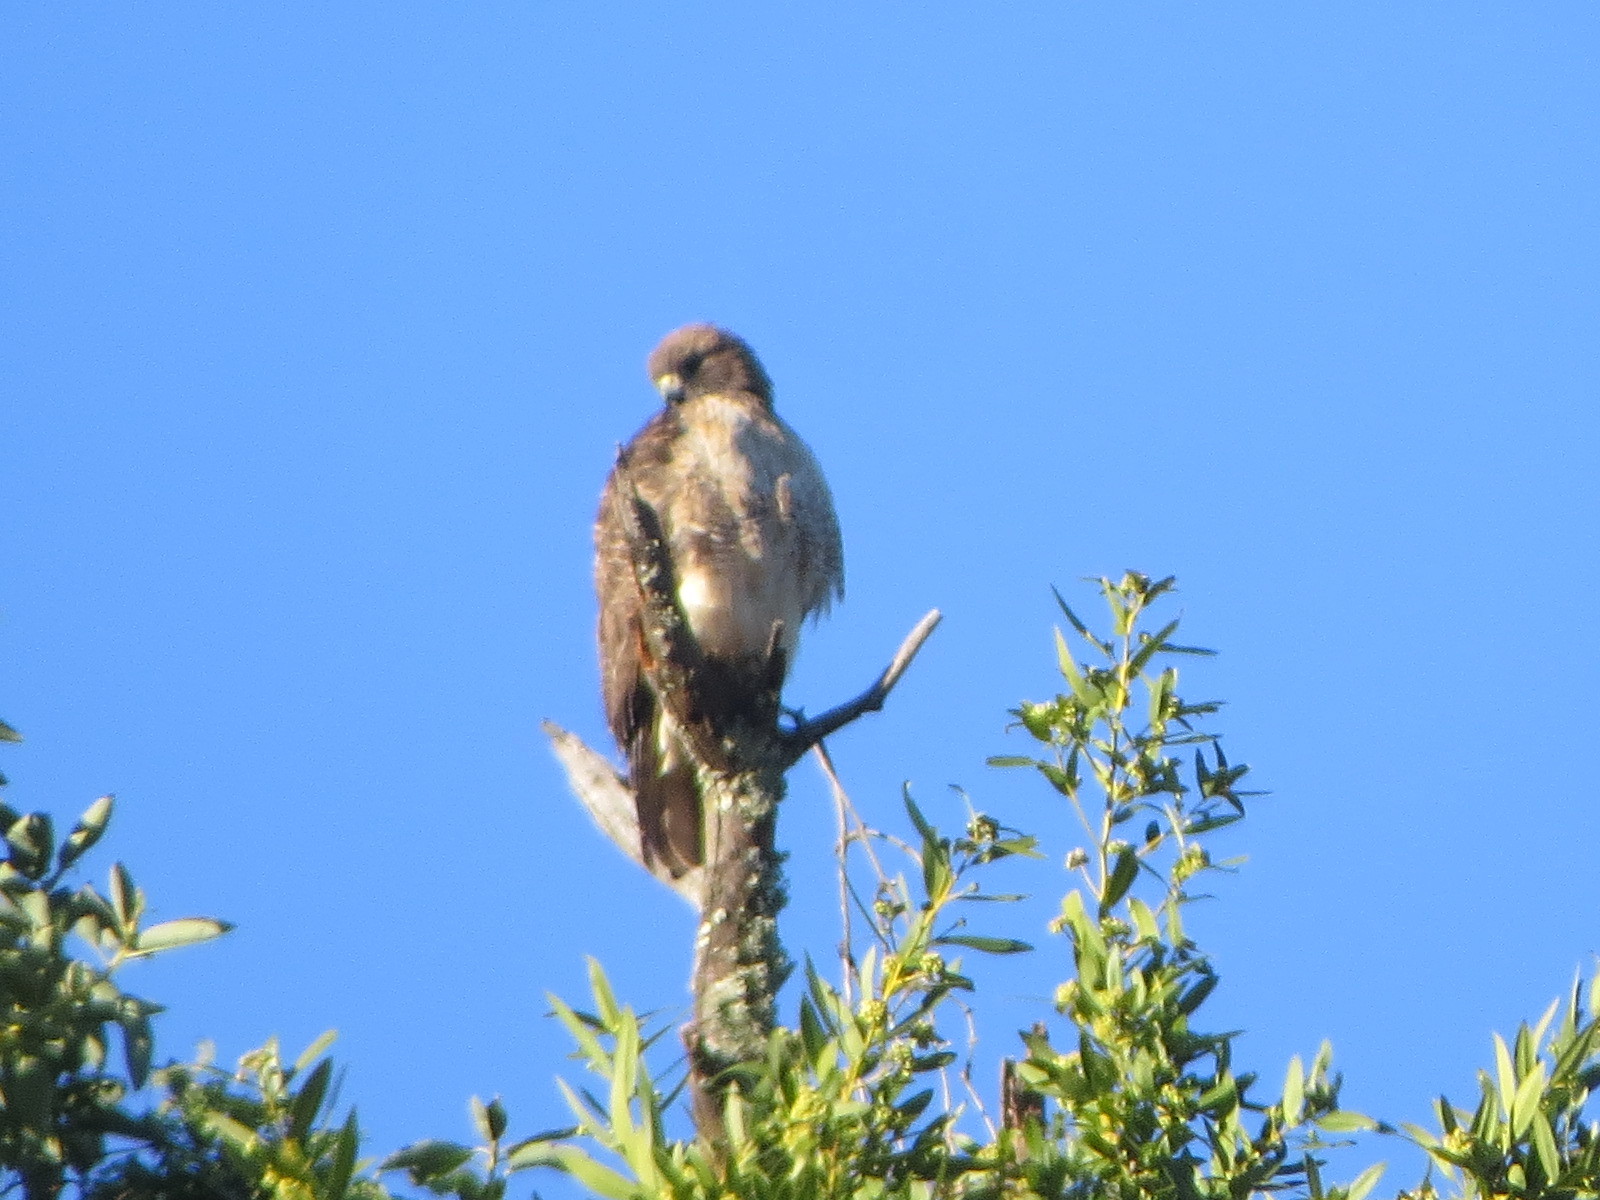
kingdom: Animalia
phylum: Chordata
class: Aves
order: Accipitriformes
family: Accipitridae
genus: Buteo
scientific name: Buteo jamaicensis
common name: Red-tailed hawk
